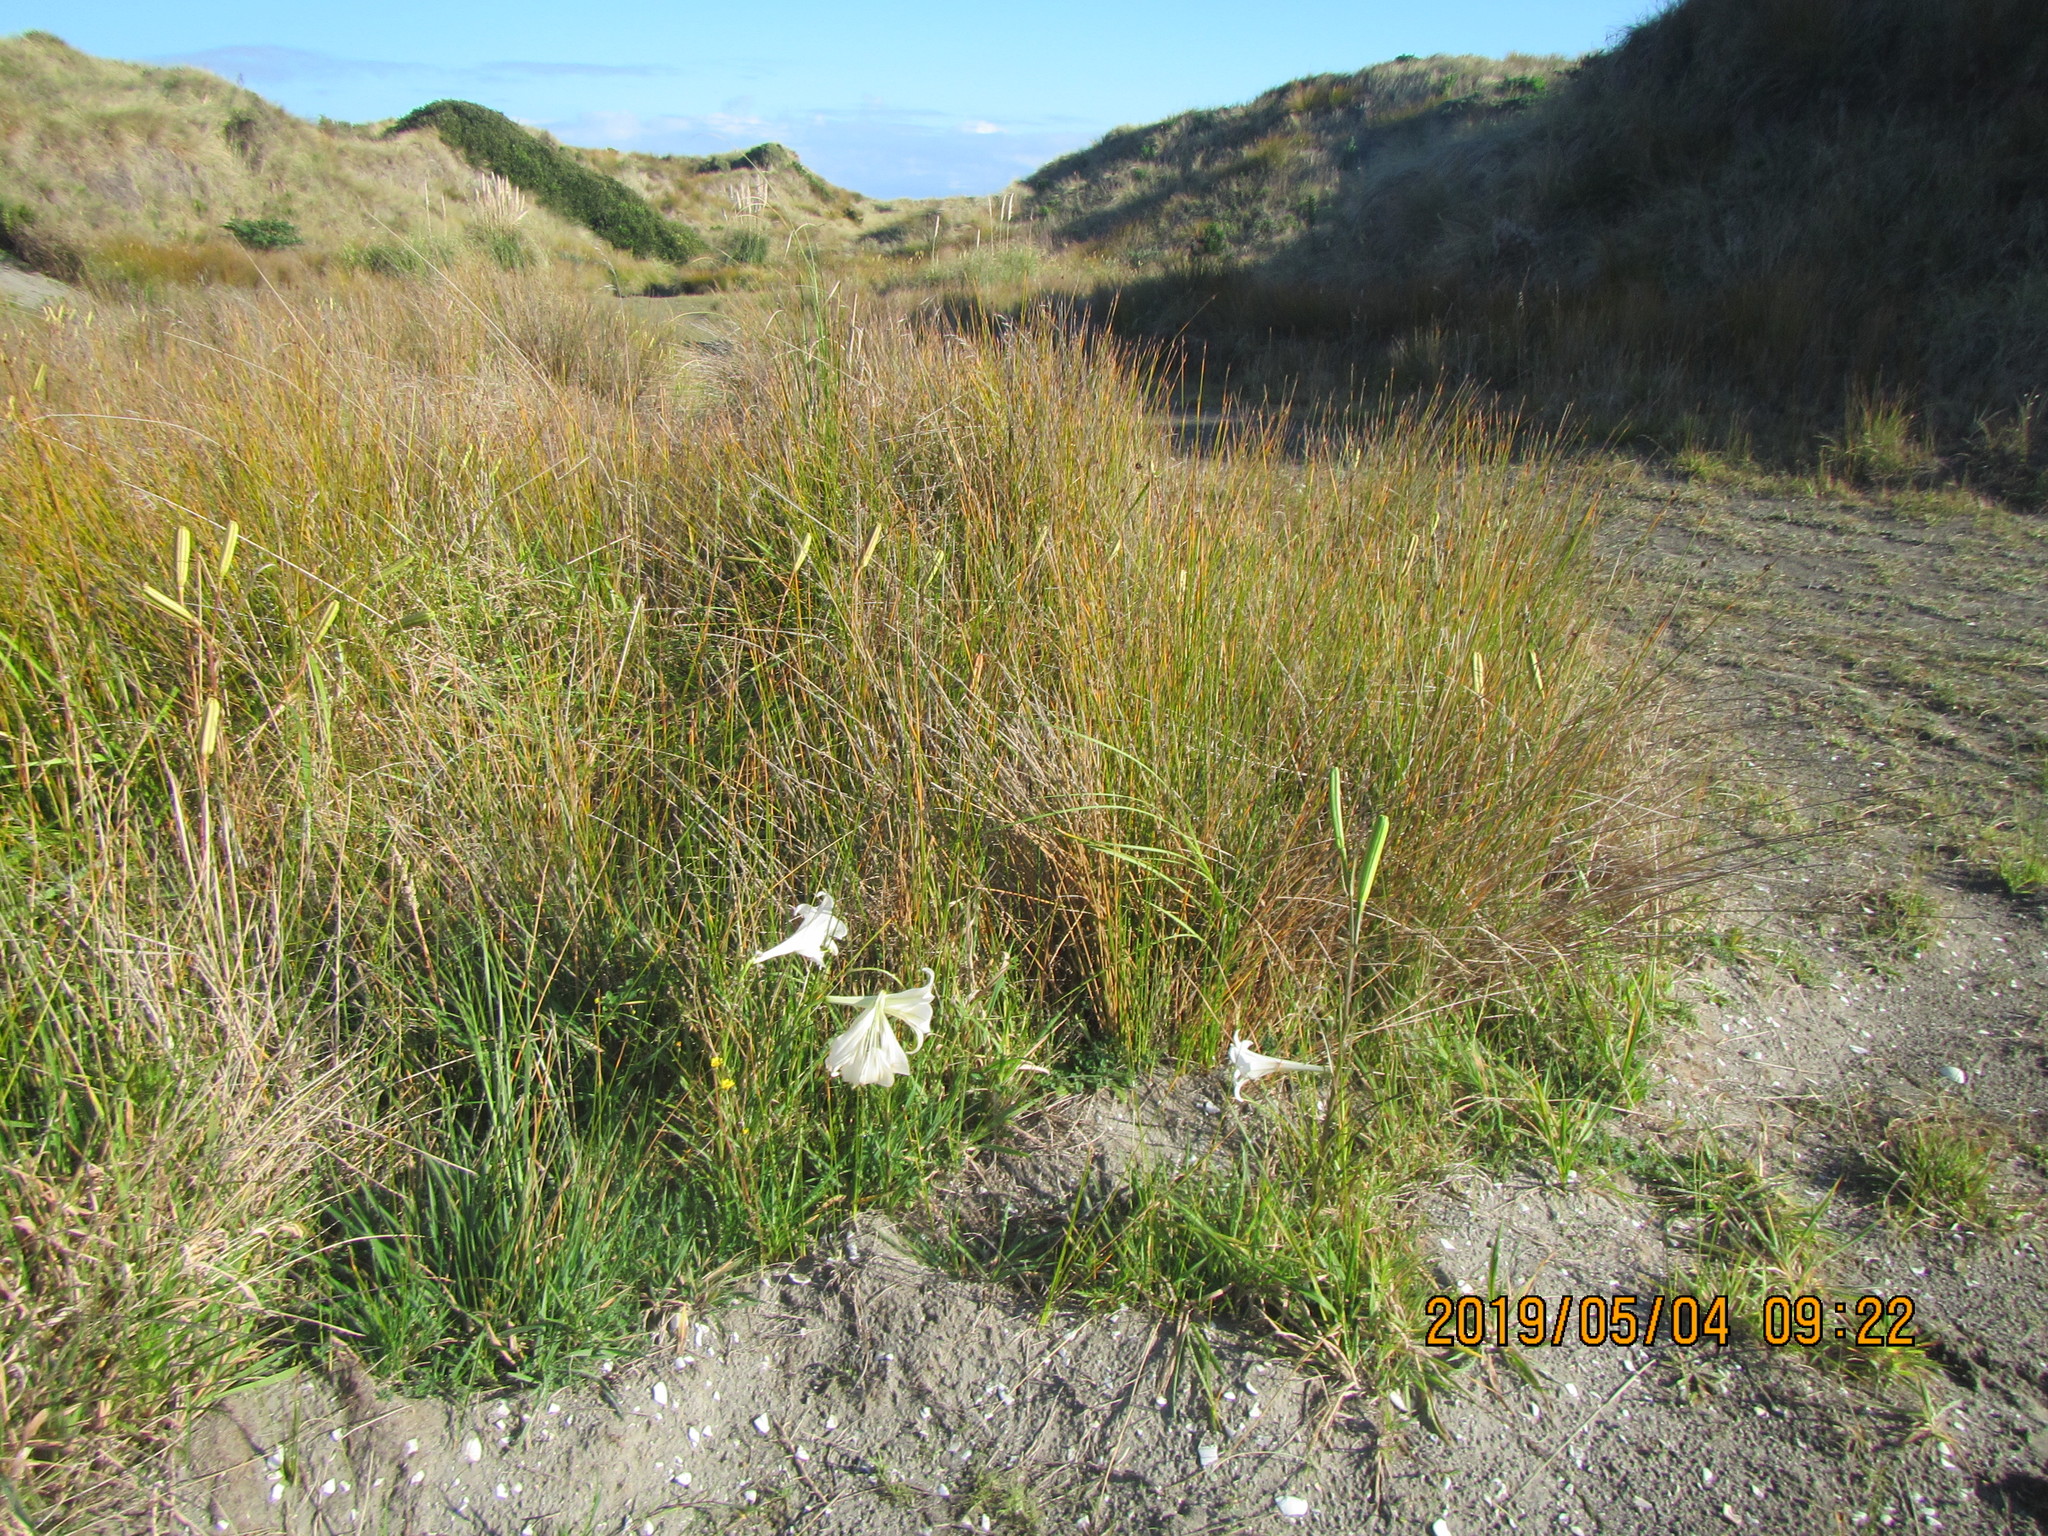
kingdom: Plantae
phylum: Tracheophyta
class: Liliopsida
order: Liliales
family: Liliaceae
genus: Lilium
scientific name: Lilium formosanum
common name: Formosa lily
